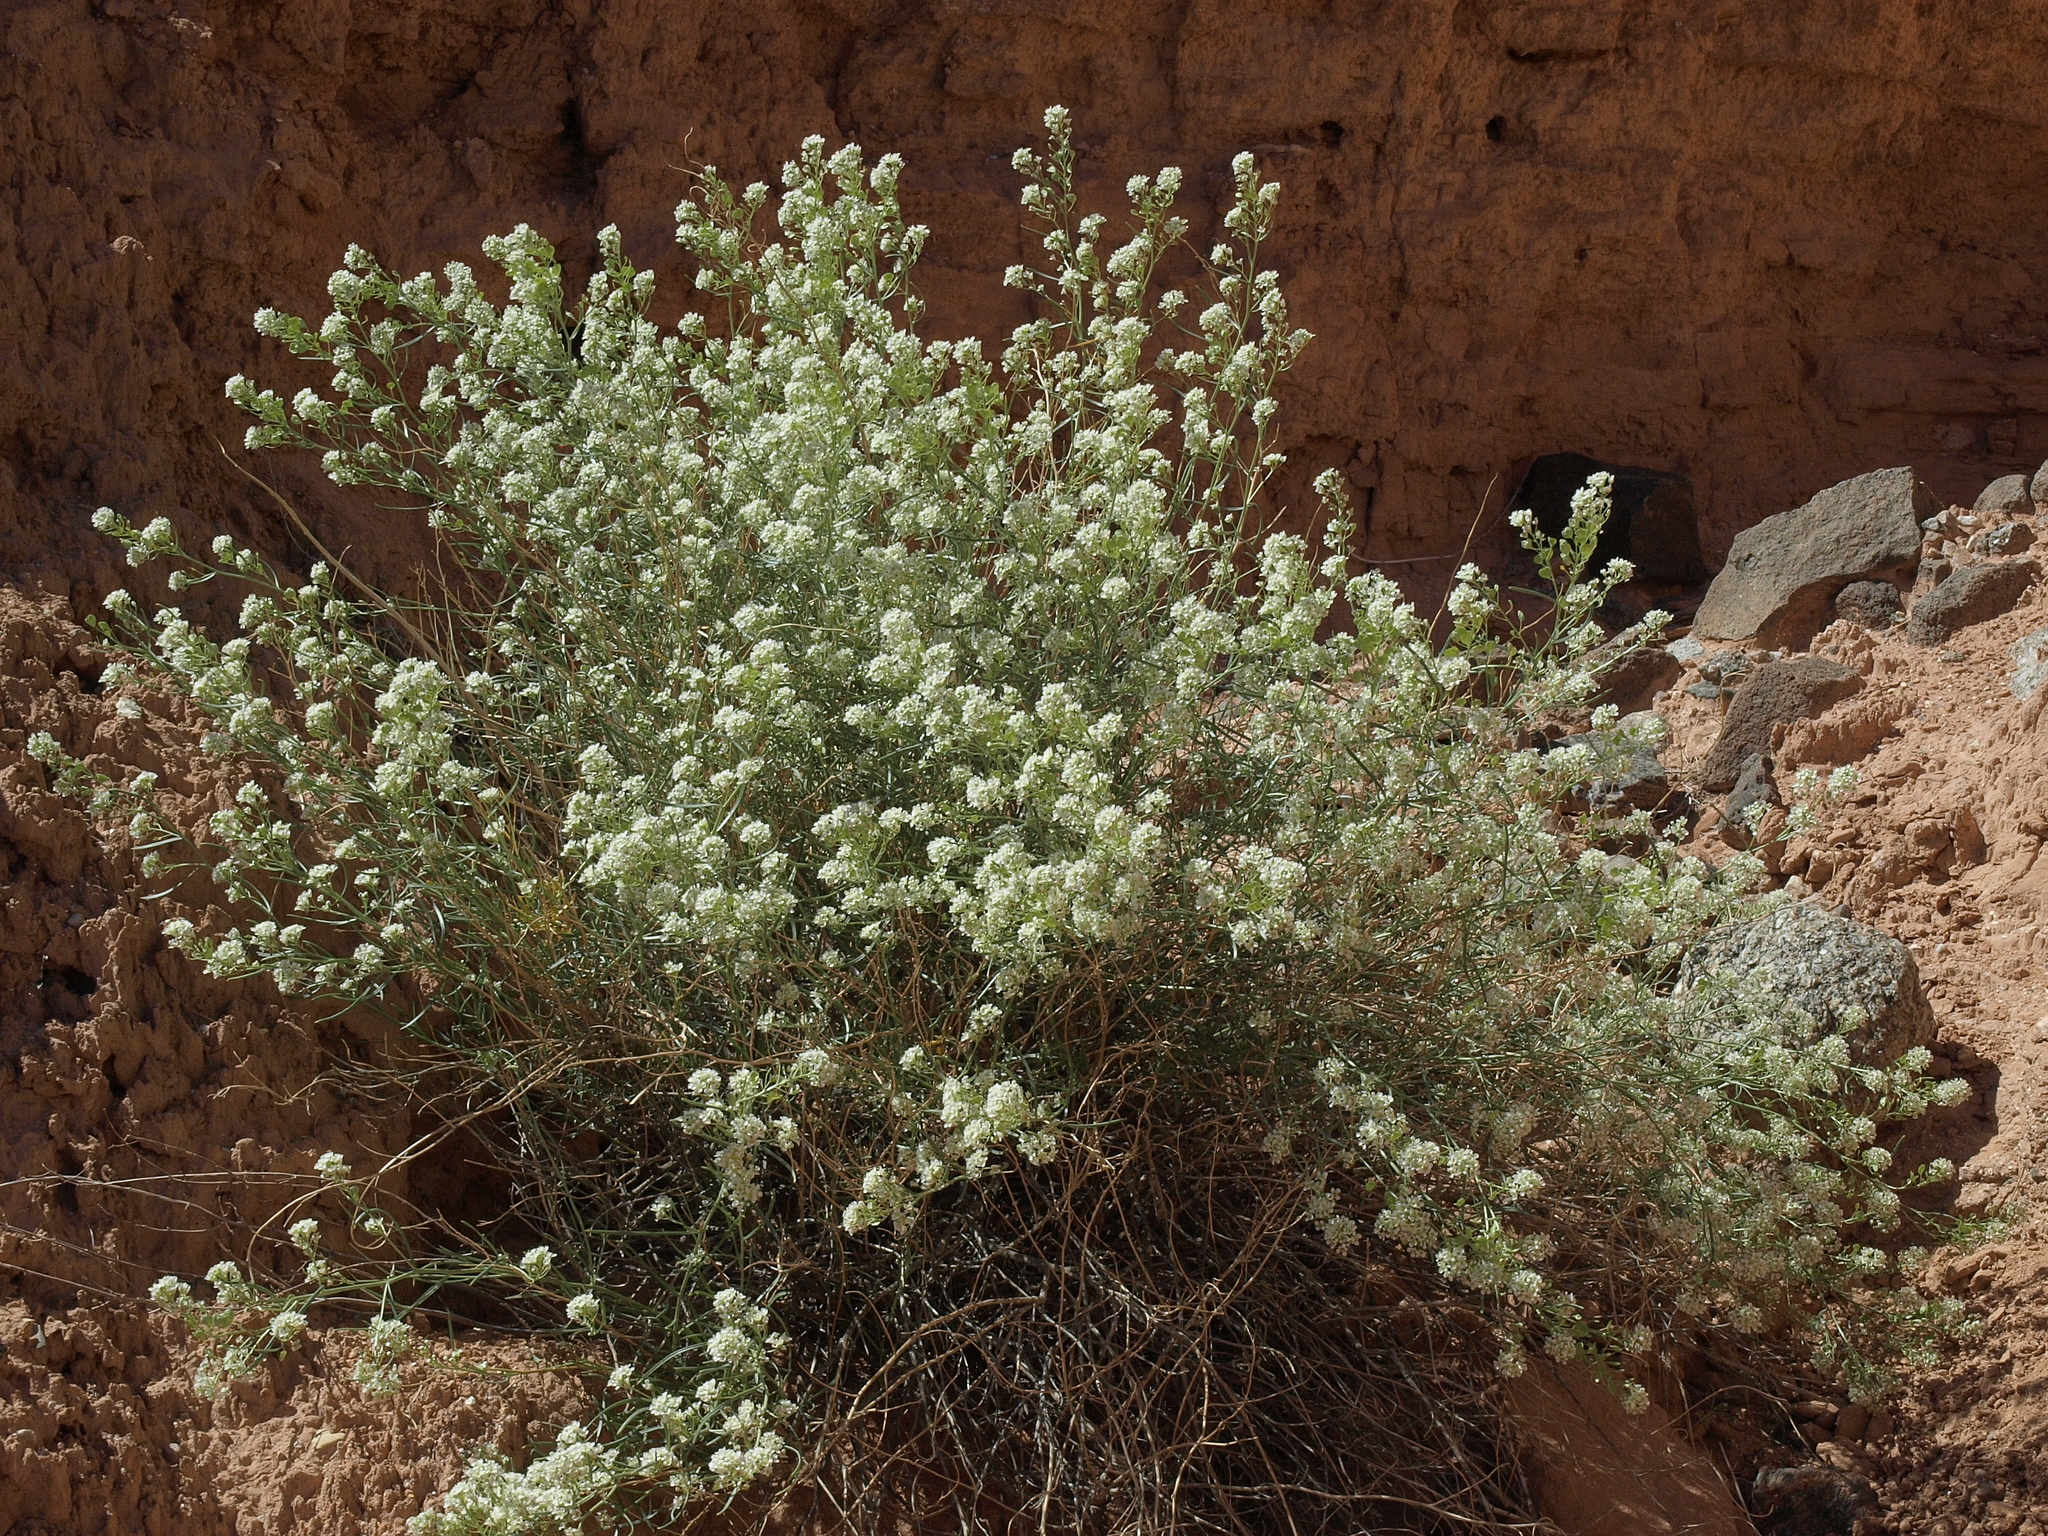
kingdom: Plantae
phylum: Tracheophyta
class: Magnoliopsida
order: Brassicales
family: Brassicaceae
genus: Lepidium
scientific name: Lepidium fremontii
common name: Fremont's pepperwort
